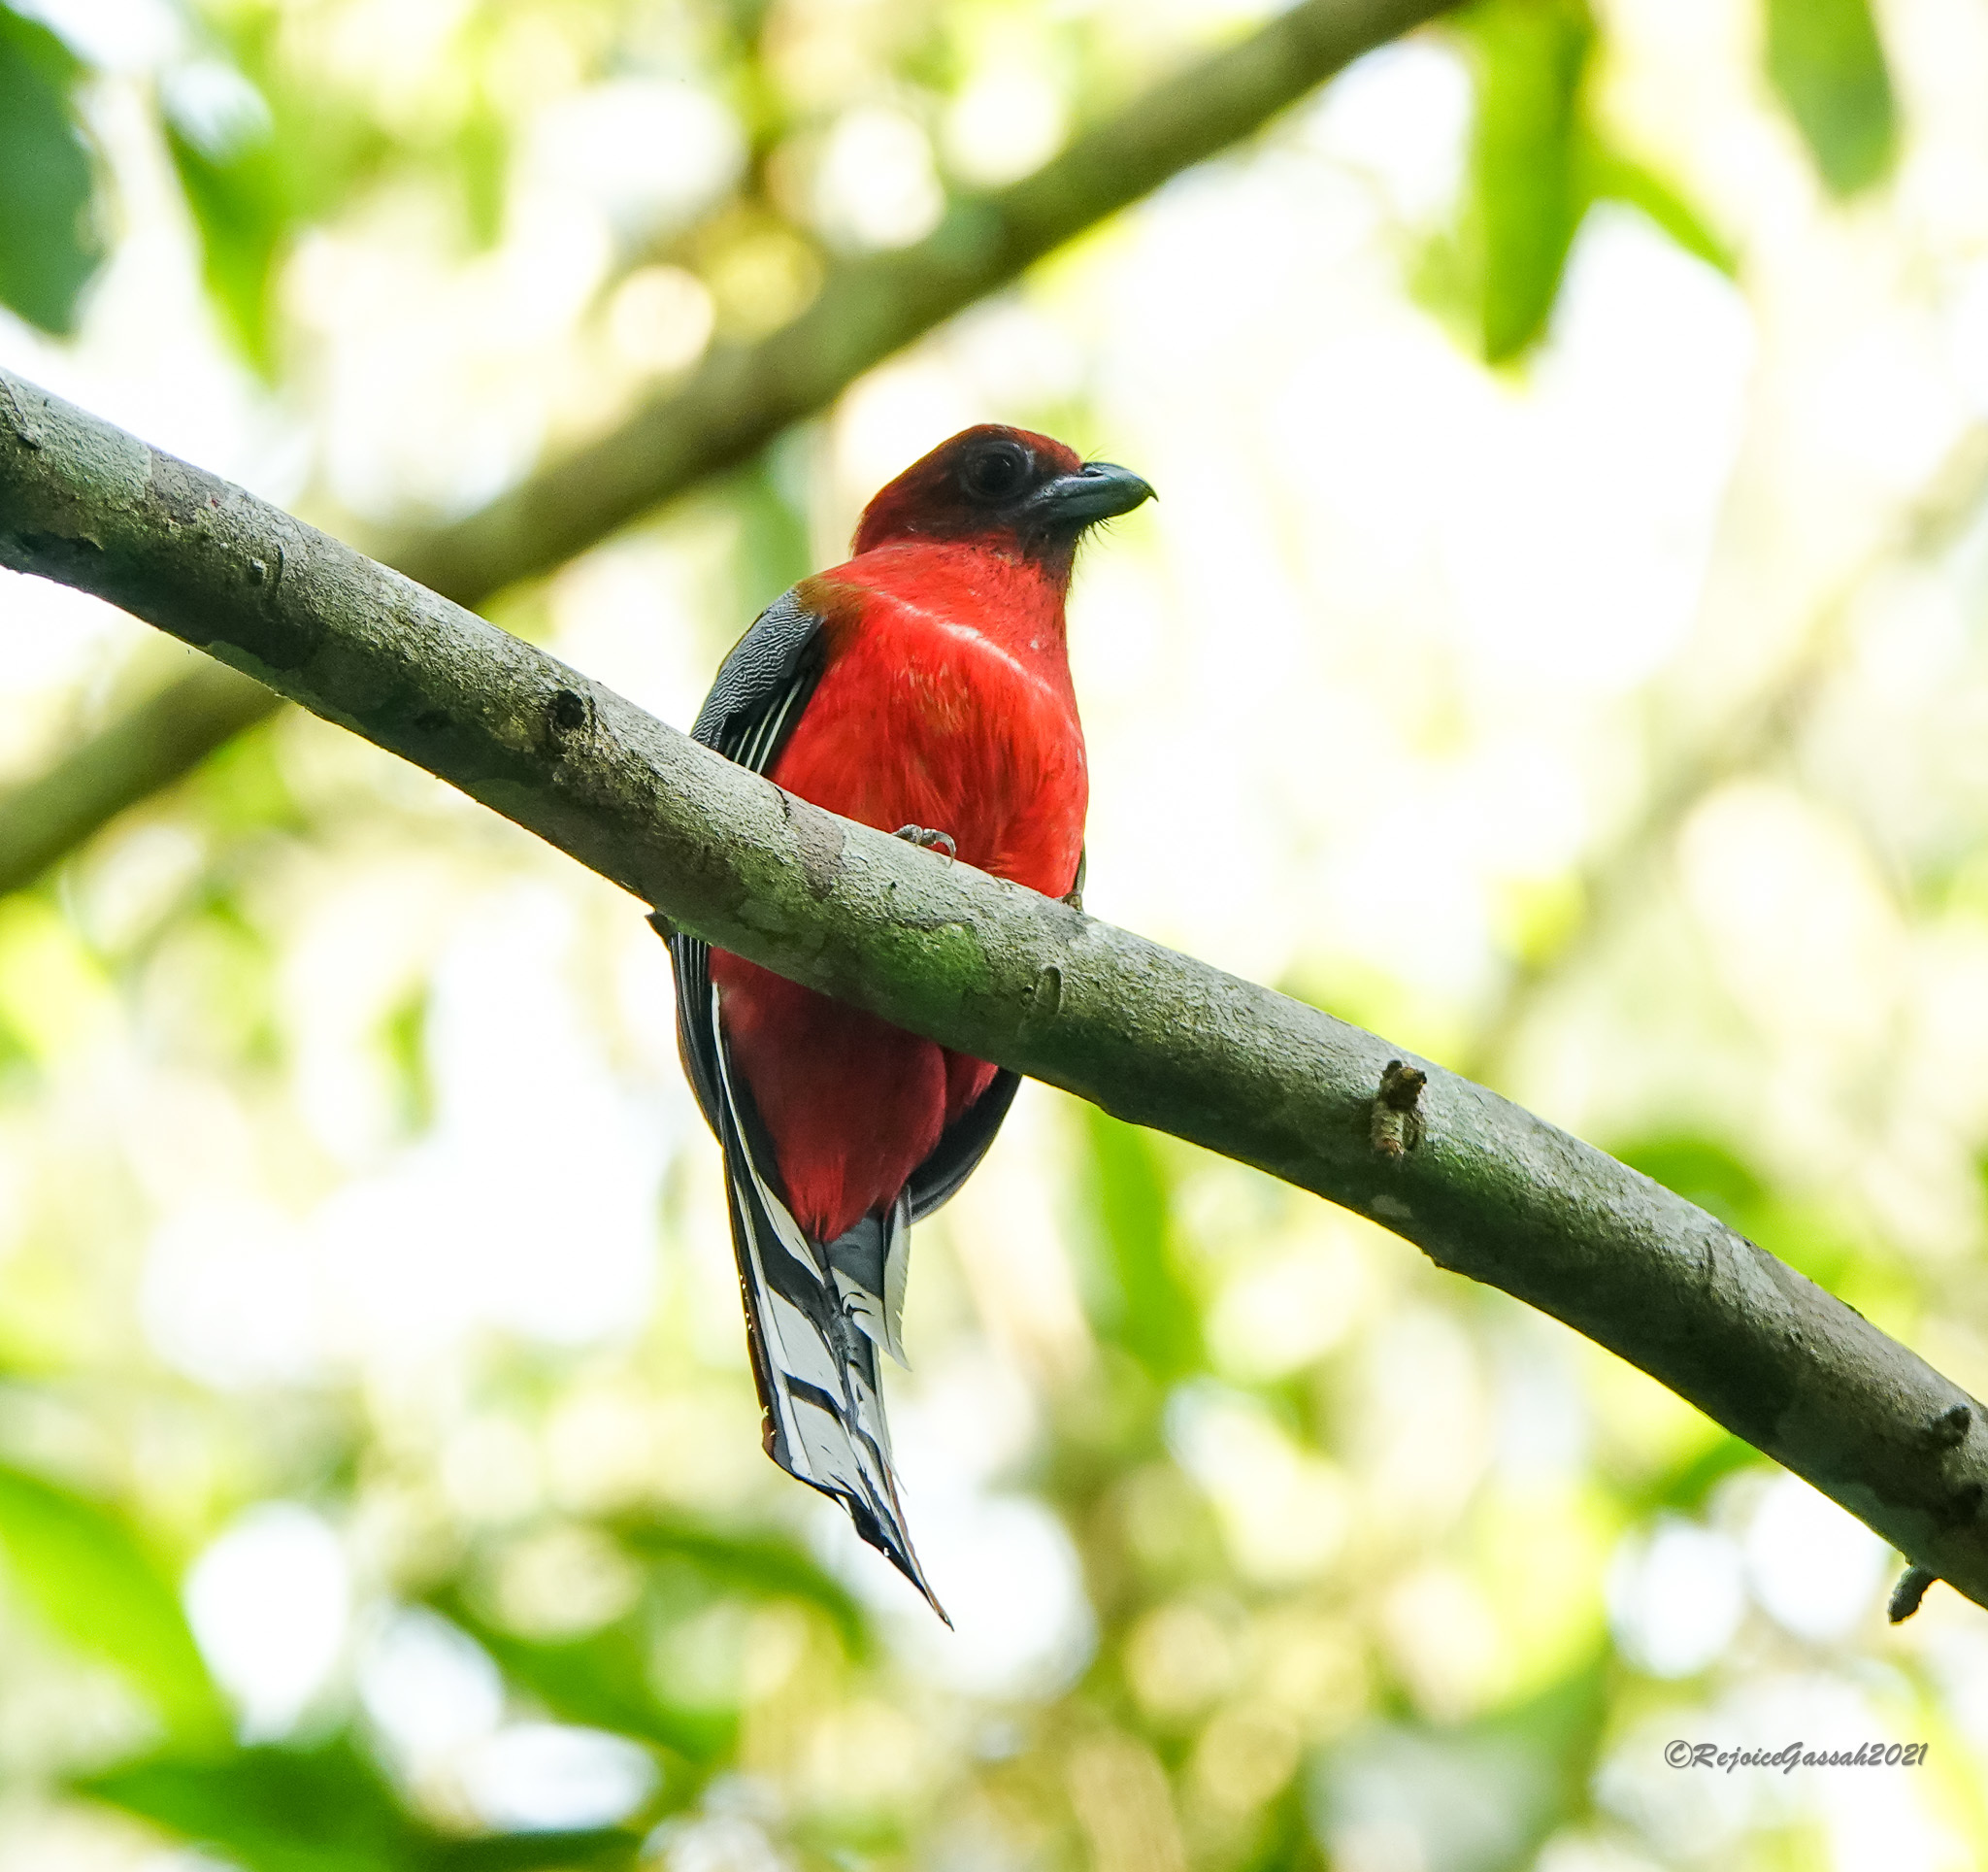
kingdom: Animalia
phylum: Chordata
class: Aves
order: Trogoniformes
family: Trogonidae
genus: Harpactes
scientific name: Harpactes erythrocephalus
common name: Red-headed trogon
